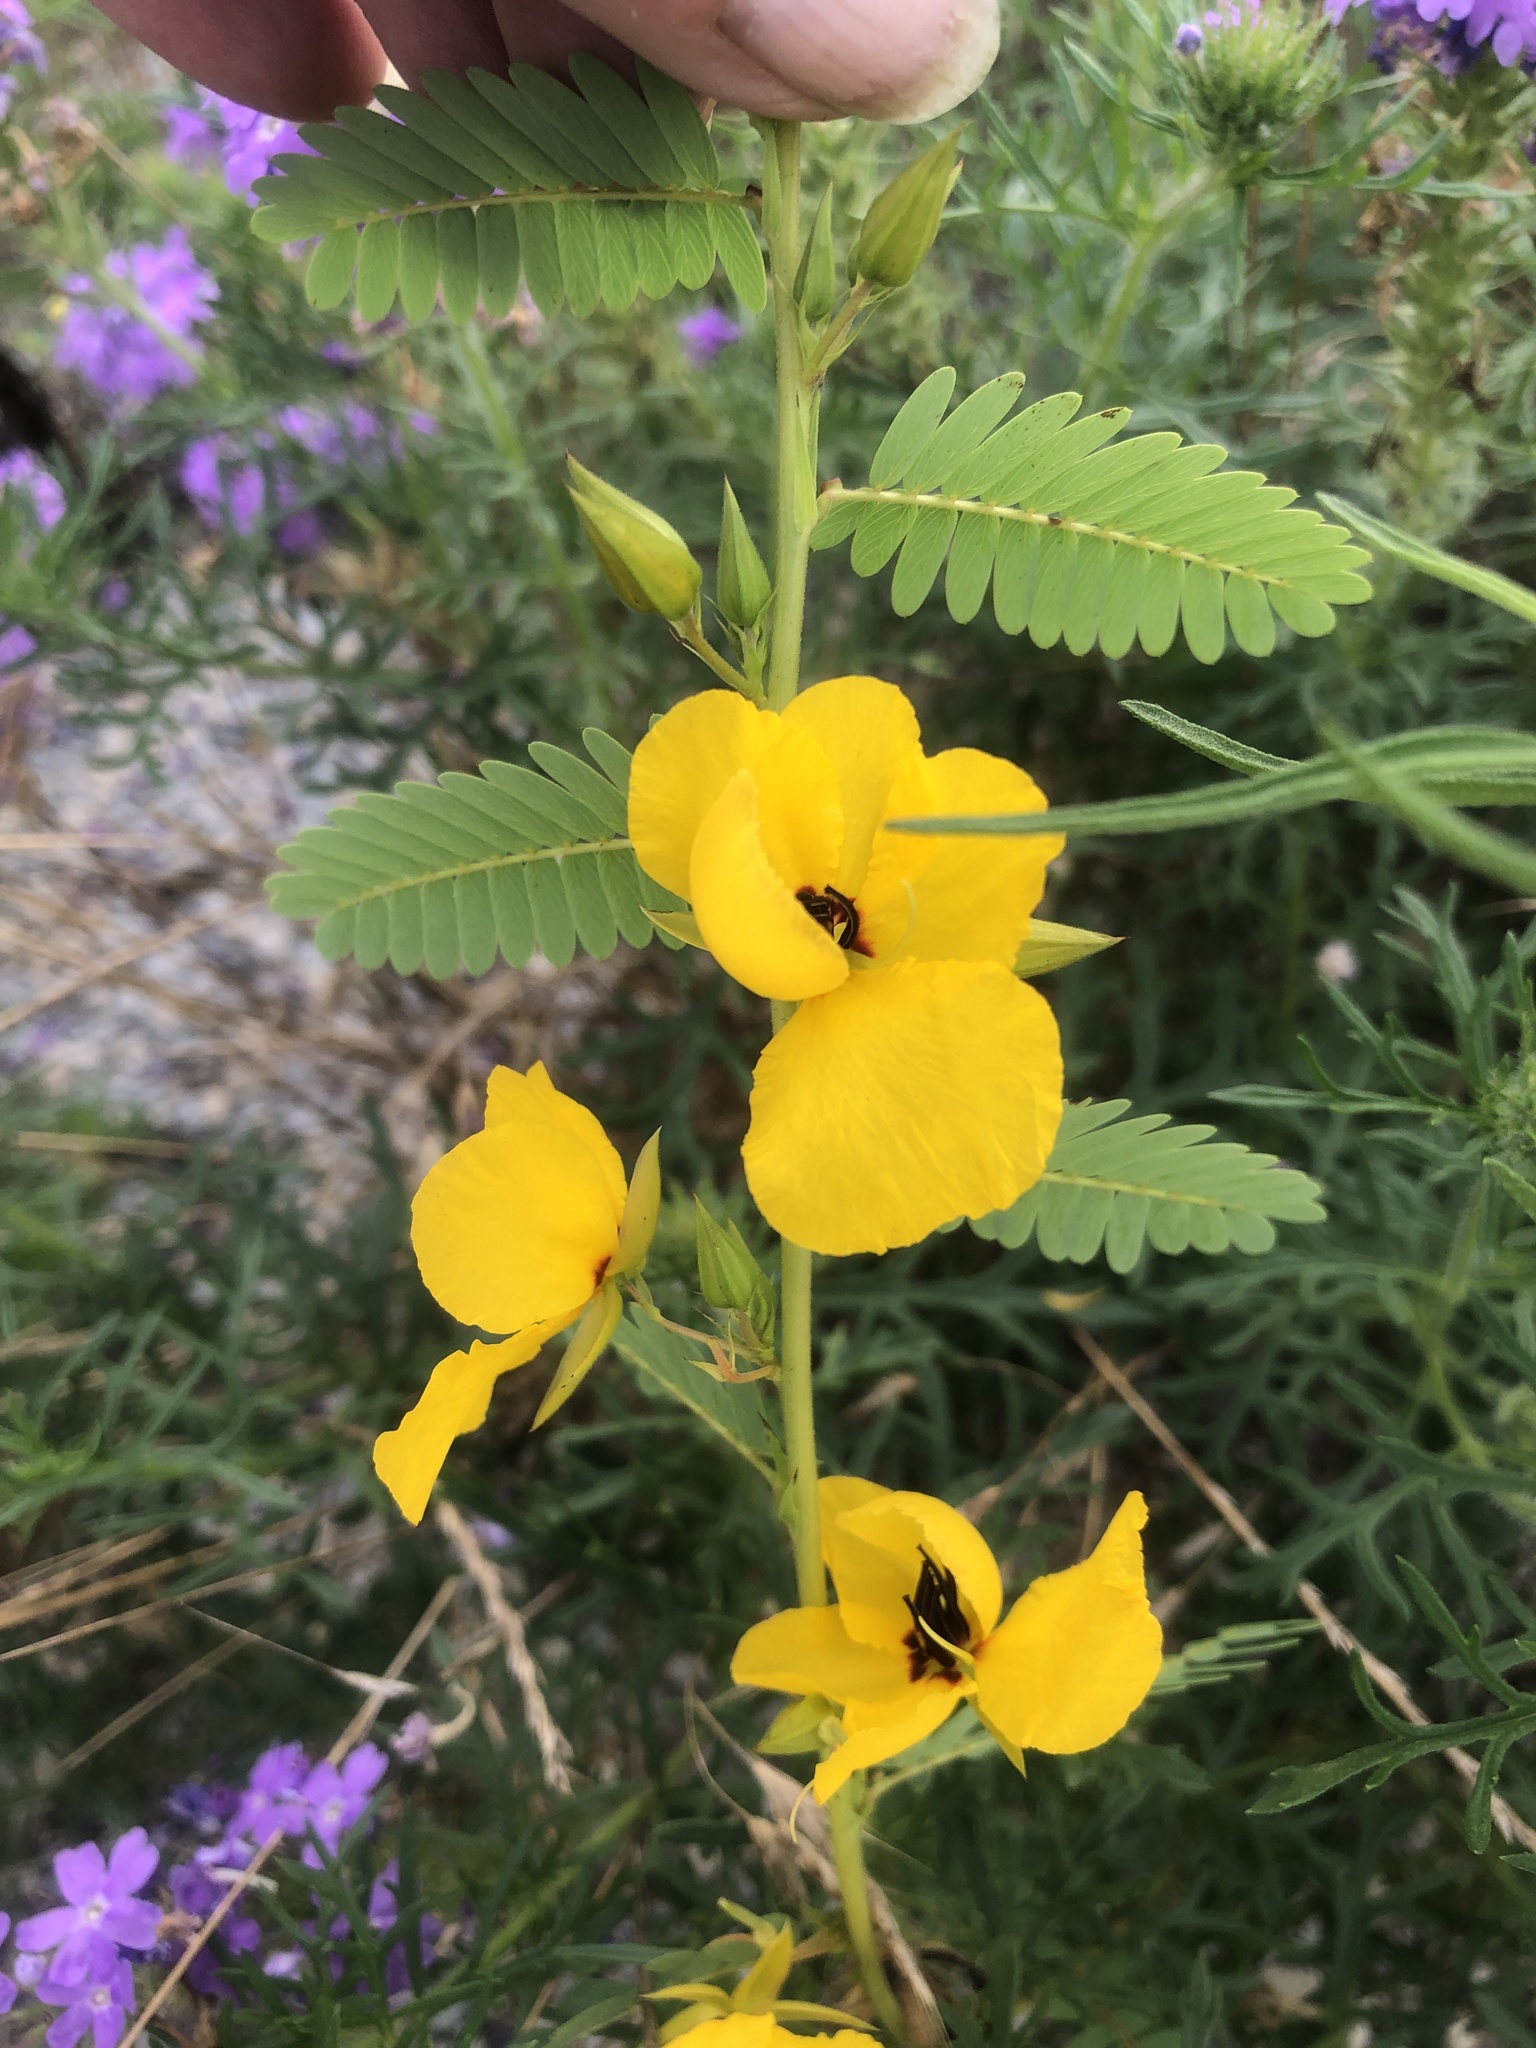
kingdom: Plantae
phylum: Tracheophyta
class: Magnoliopsida
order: Fabales
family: Fabaceae
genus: Chamaecrista
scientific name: Chamaecrista fasciculata
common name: Golden cassia
